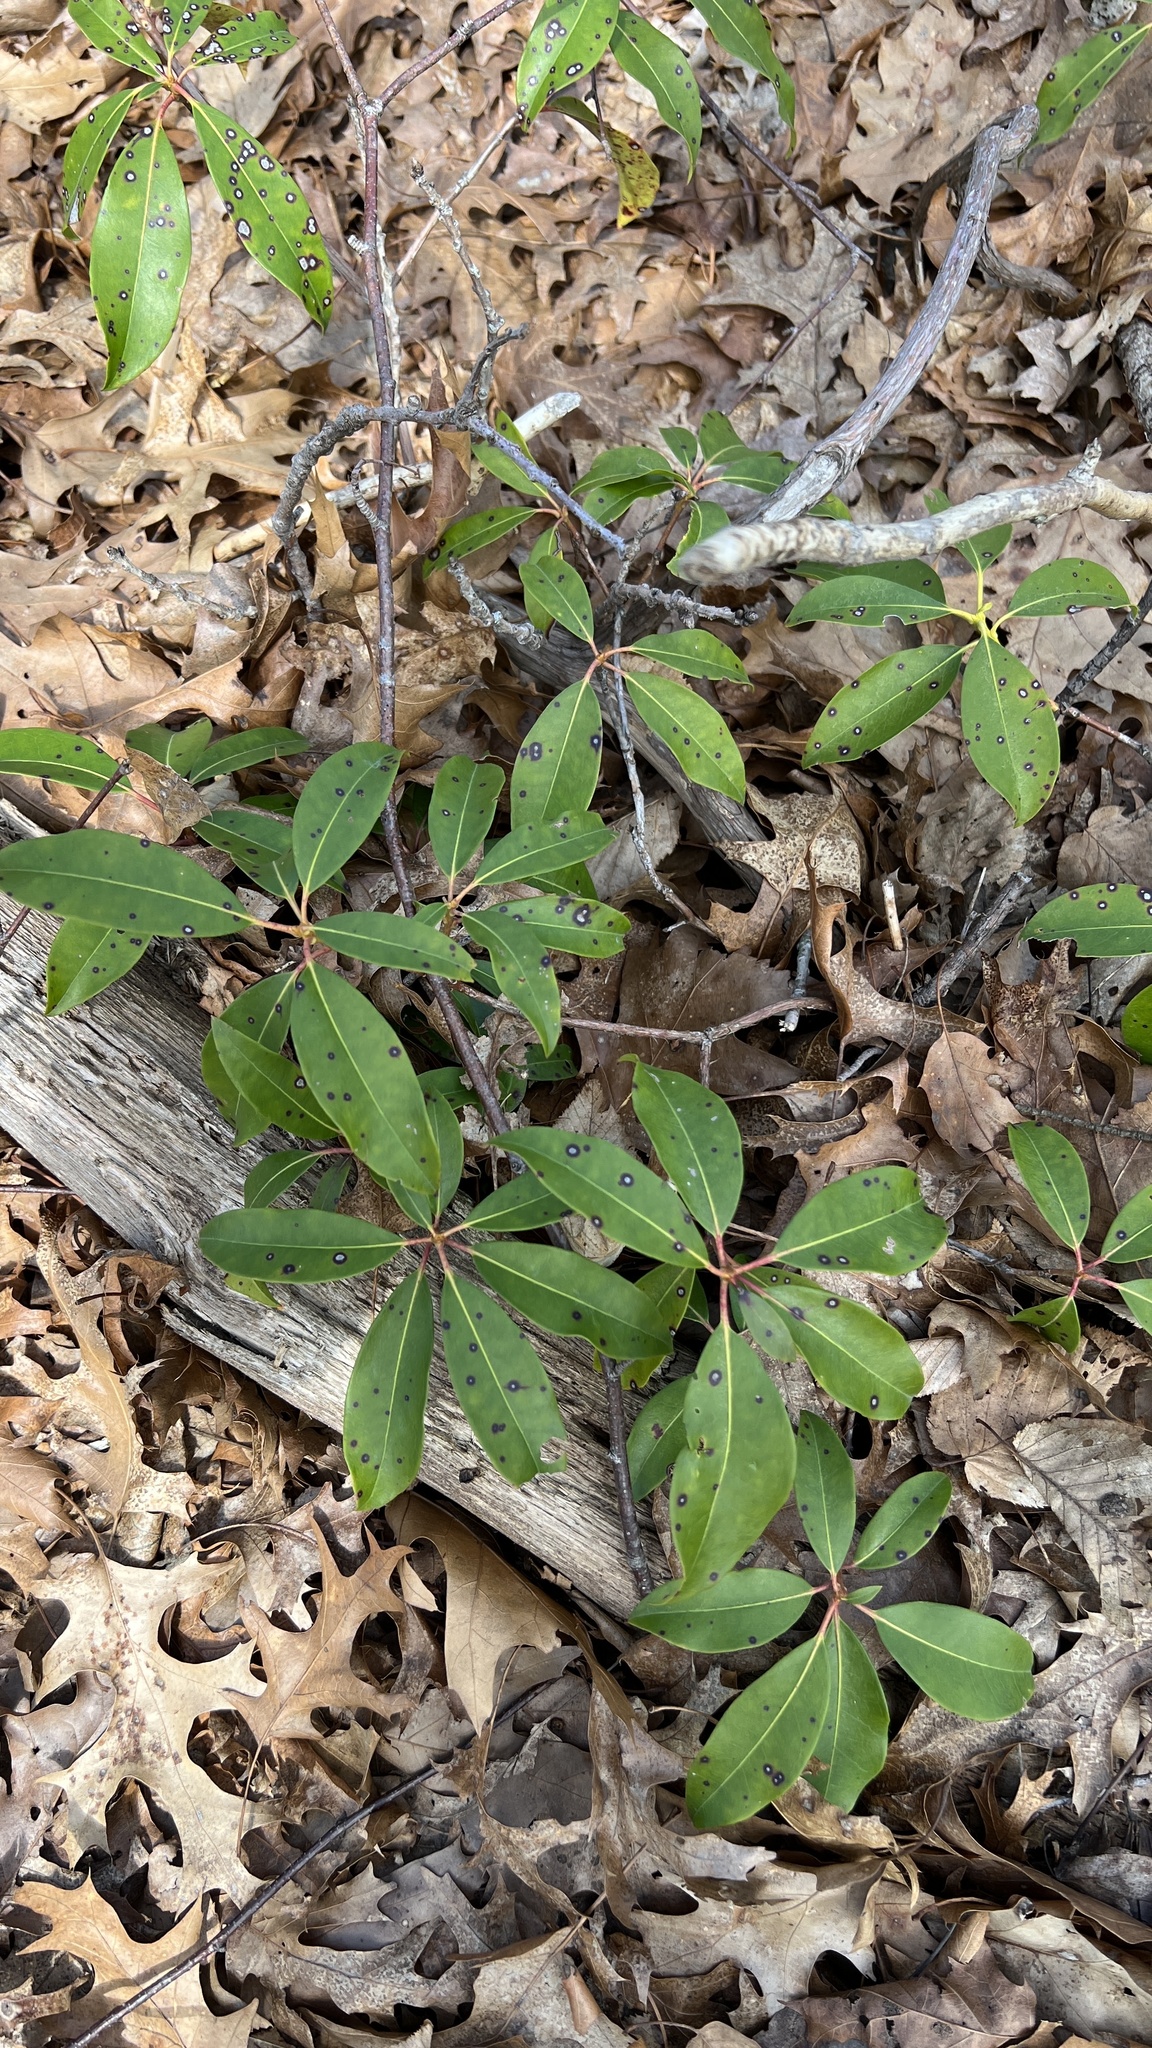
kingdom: Plantae
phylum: Tracheophyta
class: Magnoliopsida
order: Ericales
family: Ericaceae
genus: Kalmia
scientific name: Kalmia latifolia
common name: Mountain-laurel
